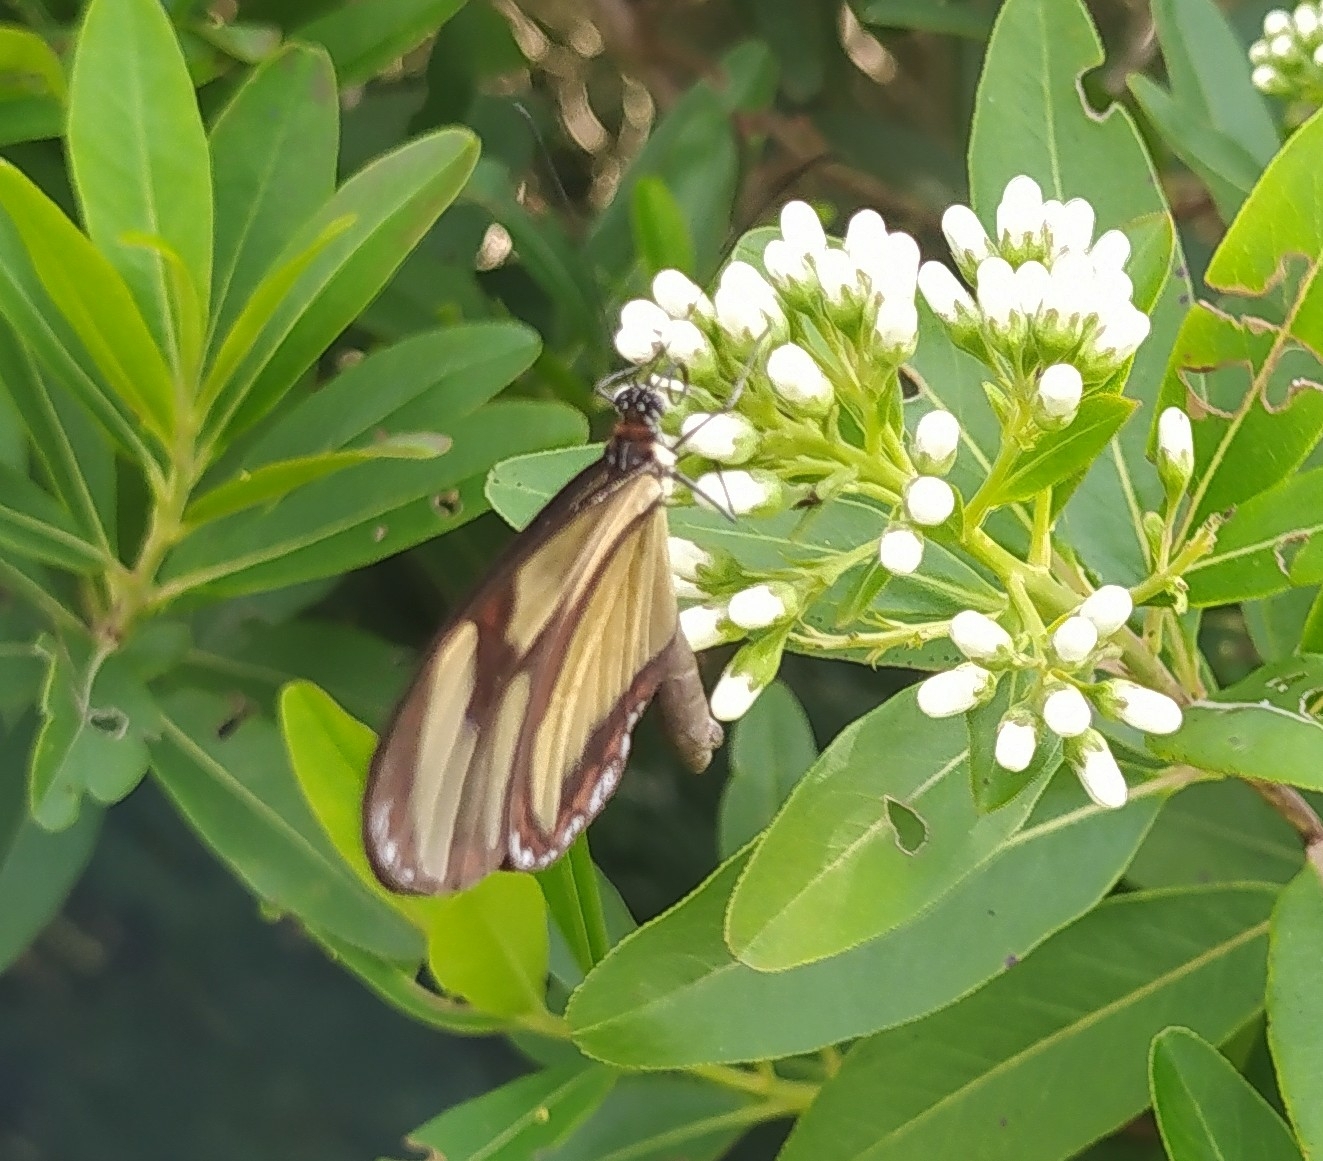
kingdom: Animalia
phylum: Arthropoda
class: Insecta
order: Lepidoptera
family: Nymphalidae
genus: Epityches
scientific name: Epityches eupompe
